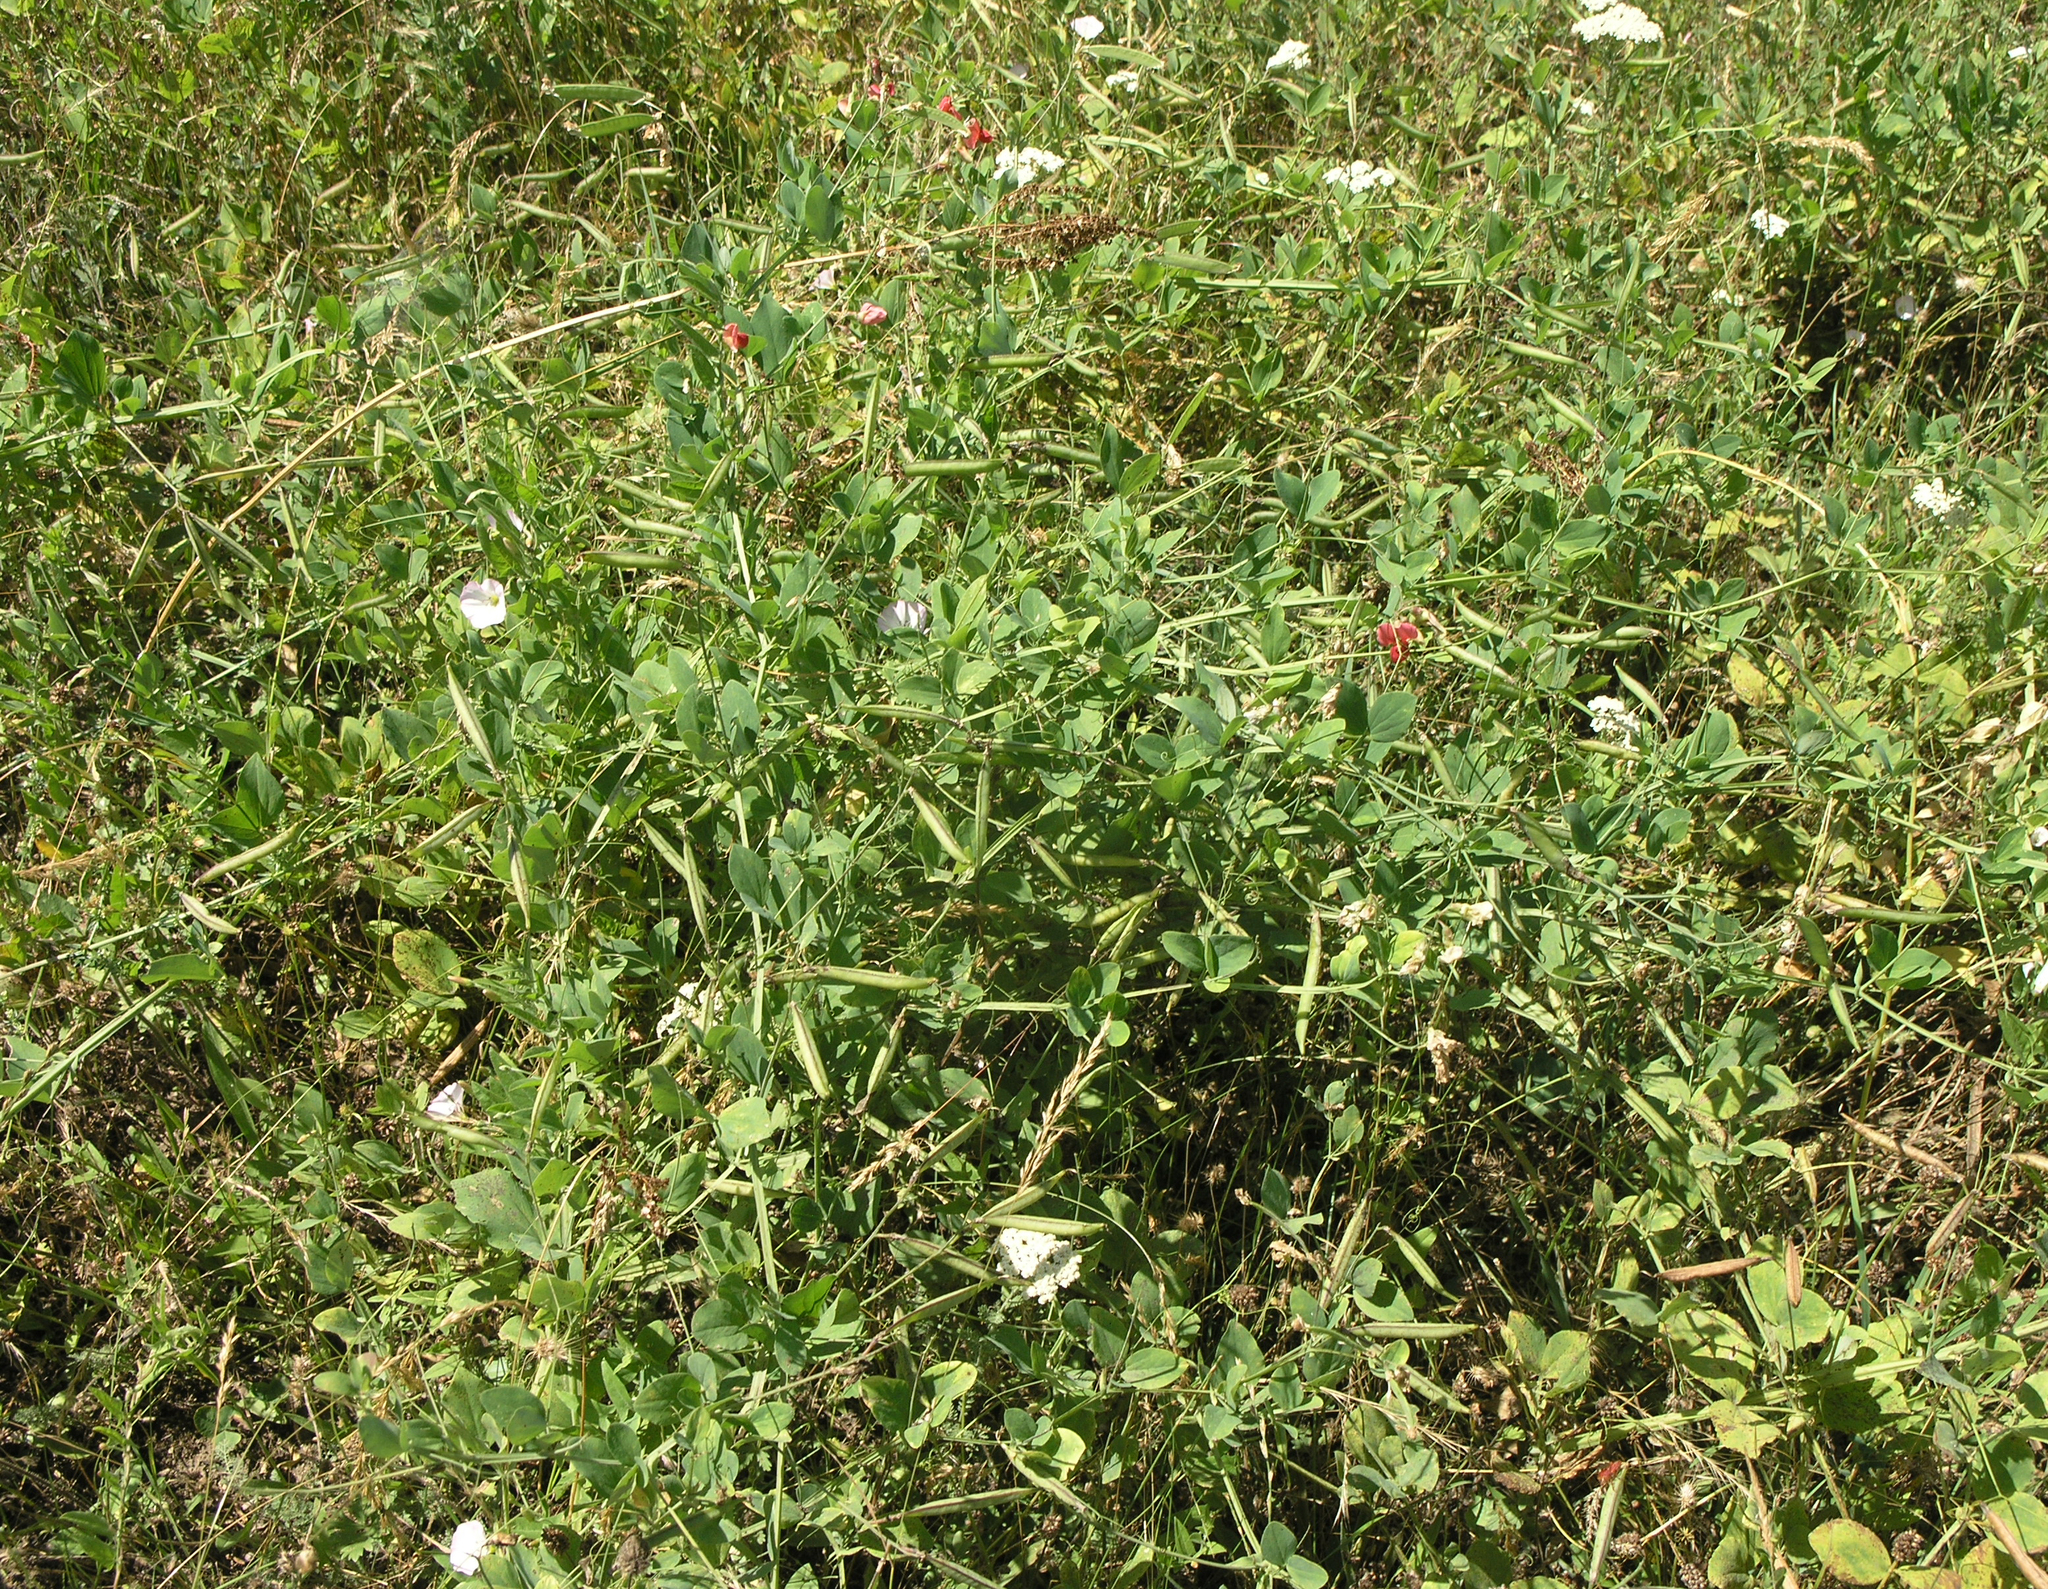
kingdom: Plantae
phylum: Tracheophyta
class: Magnoliopsida
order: Fabales
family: Fabaceae
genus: Lathyrus
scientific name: Lathyrus miniatus
